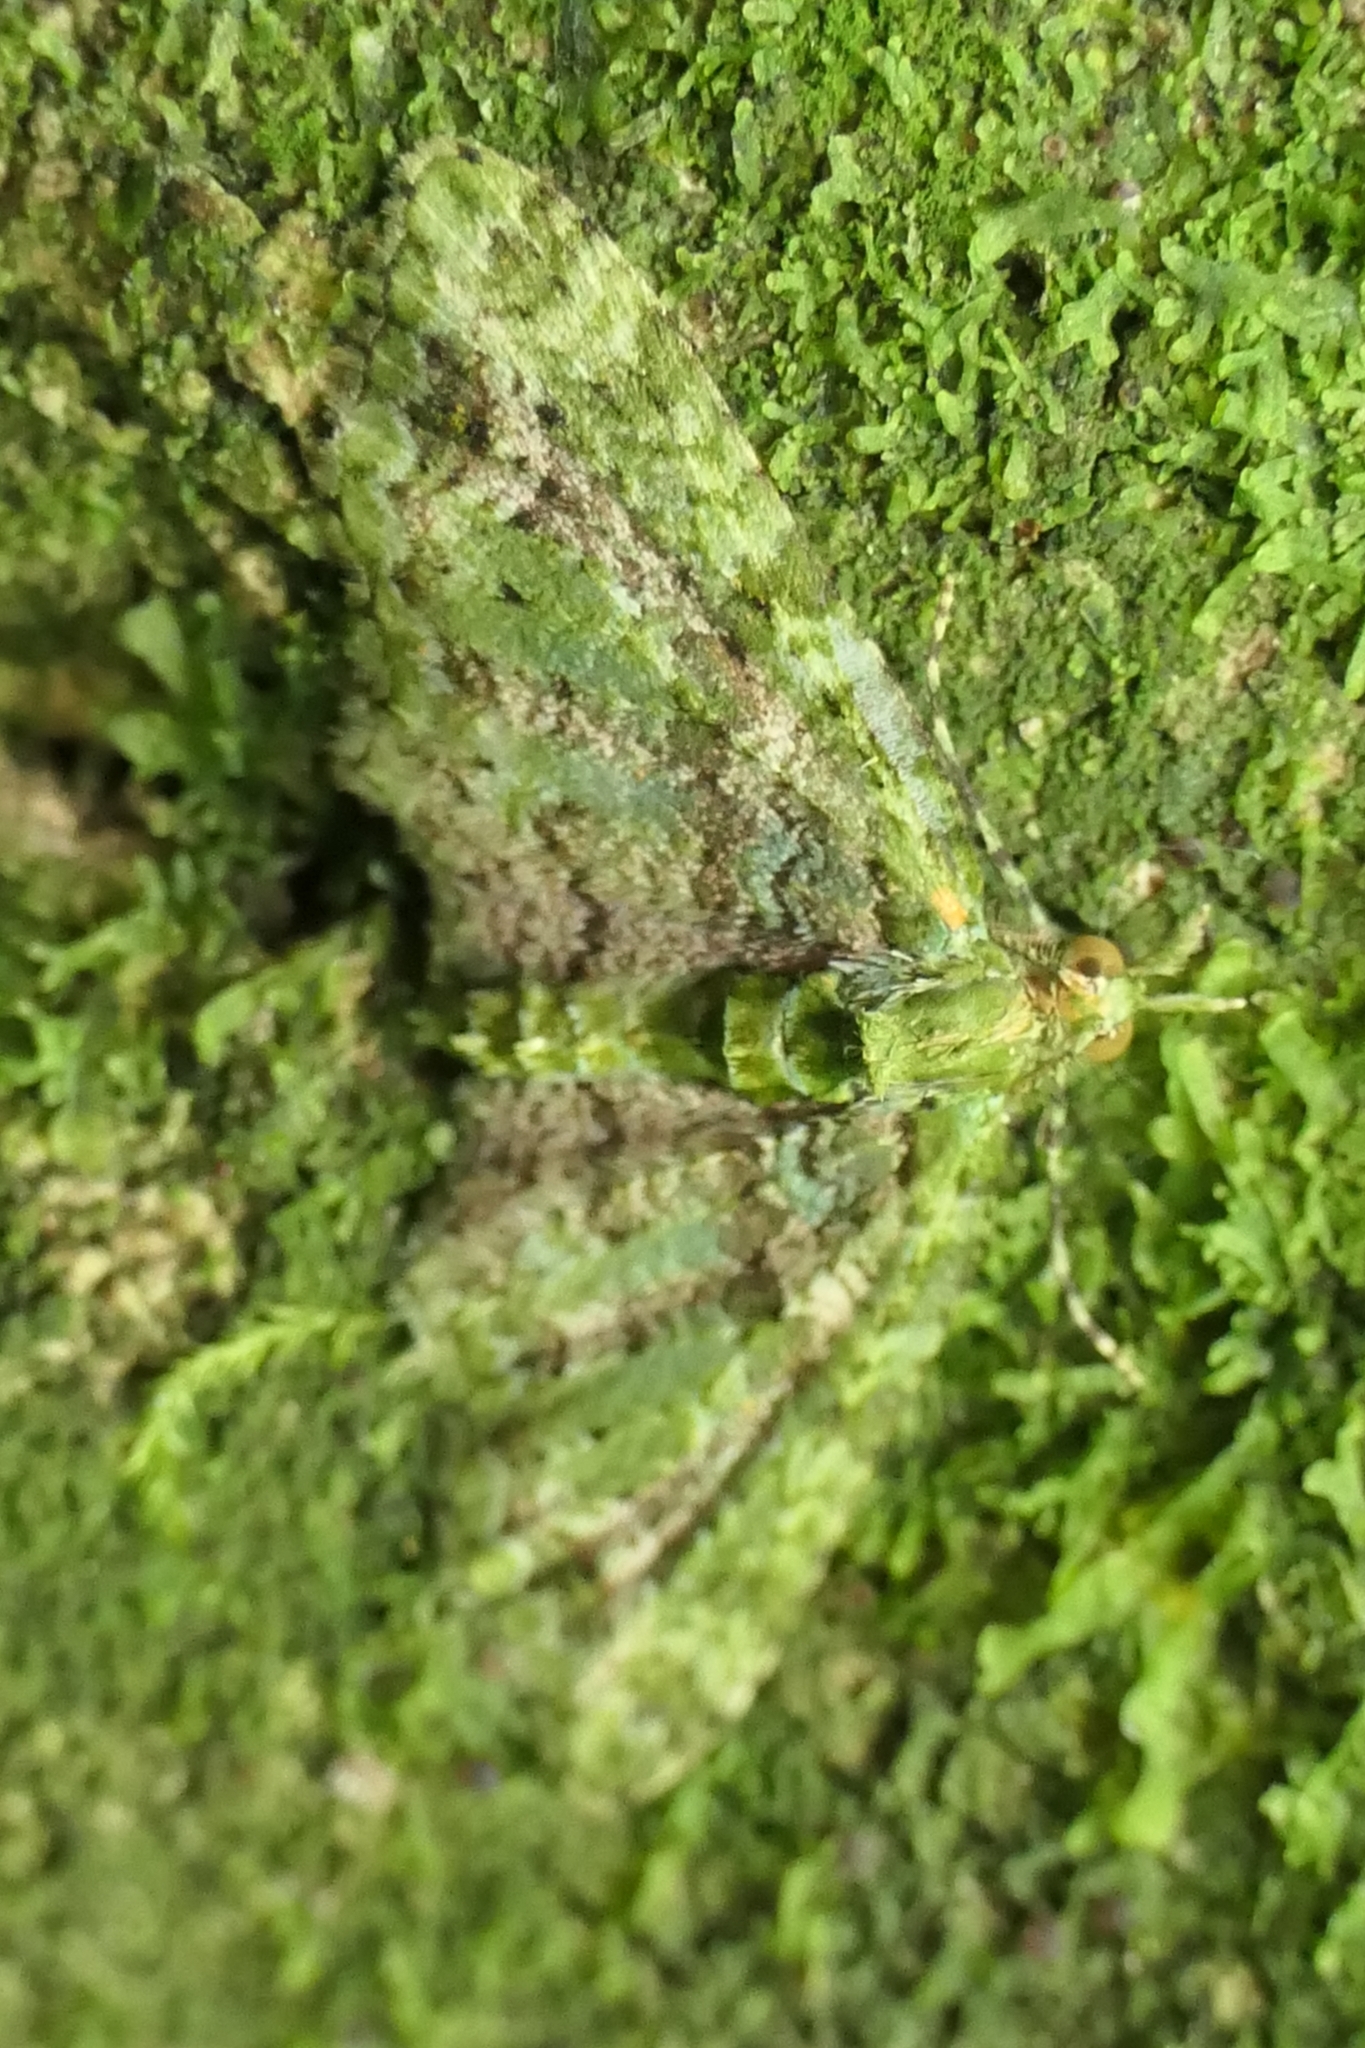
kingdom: Animalia
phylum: Arthropoda
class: Insecta
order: Lepidoptera
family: Geometridae
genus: Pasiphila
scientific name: Pasiphila muscosata
